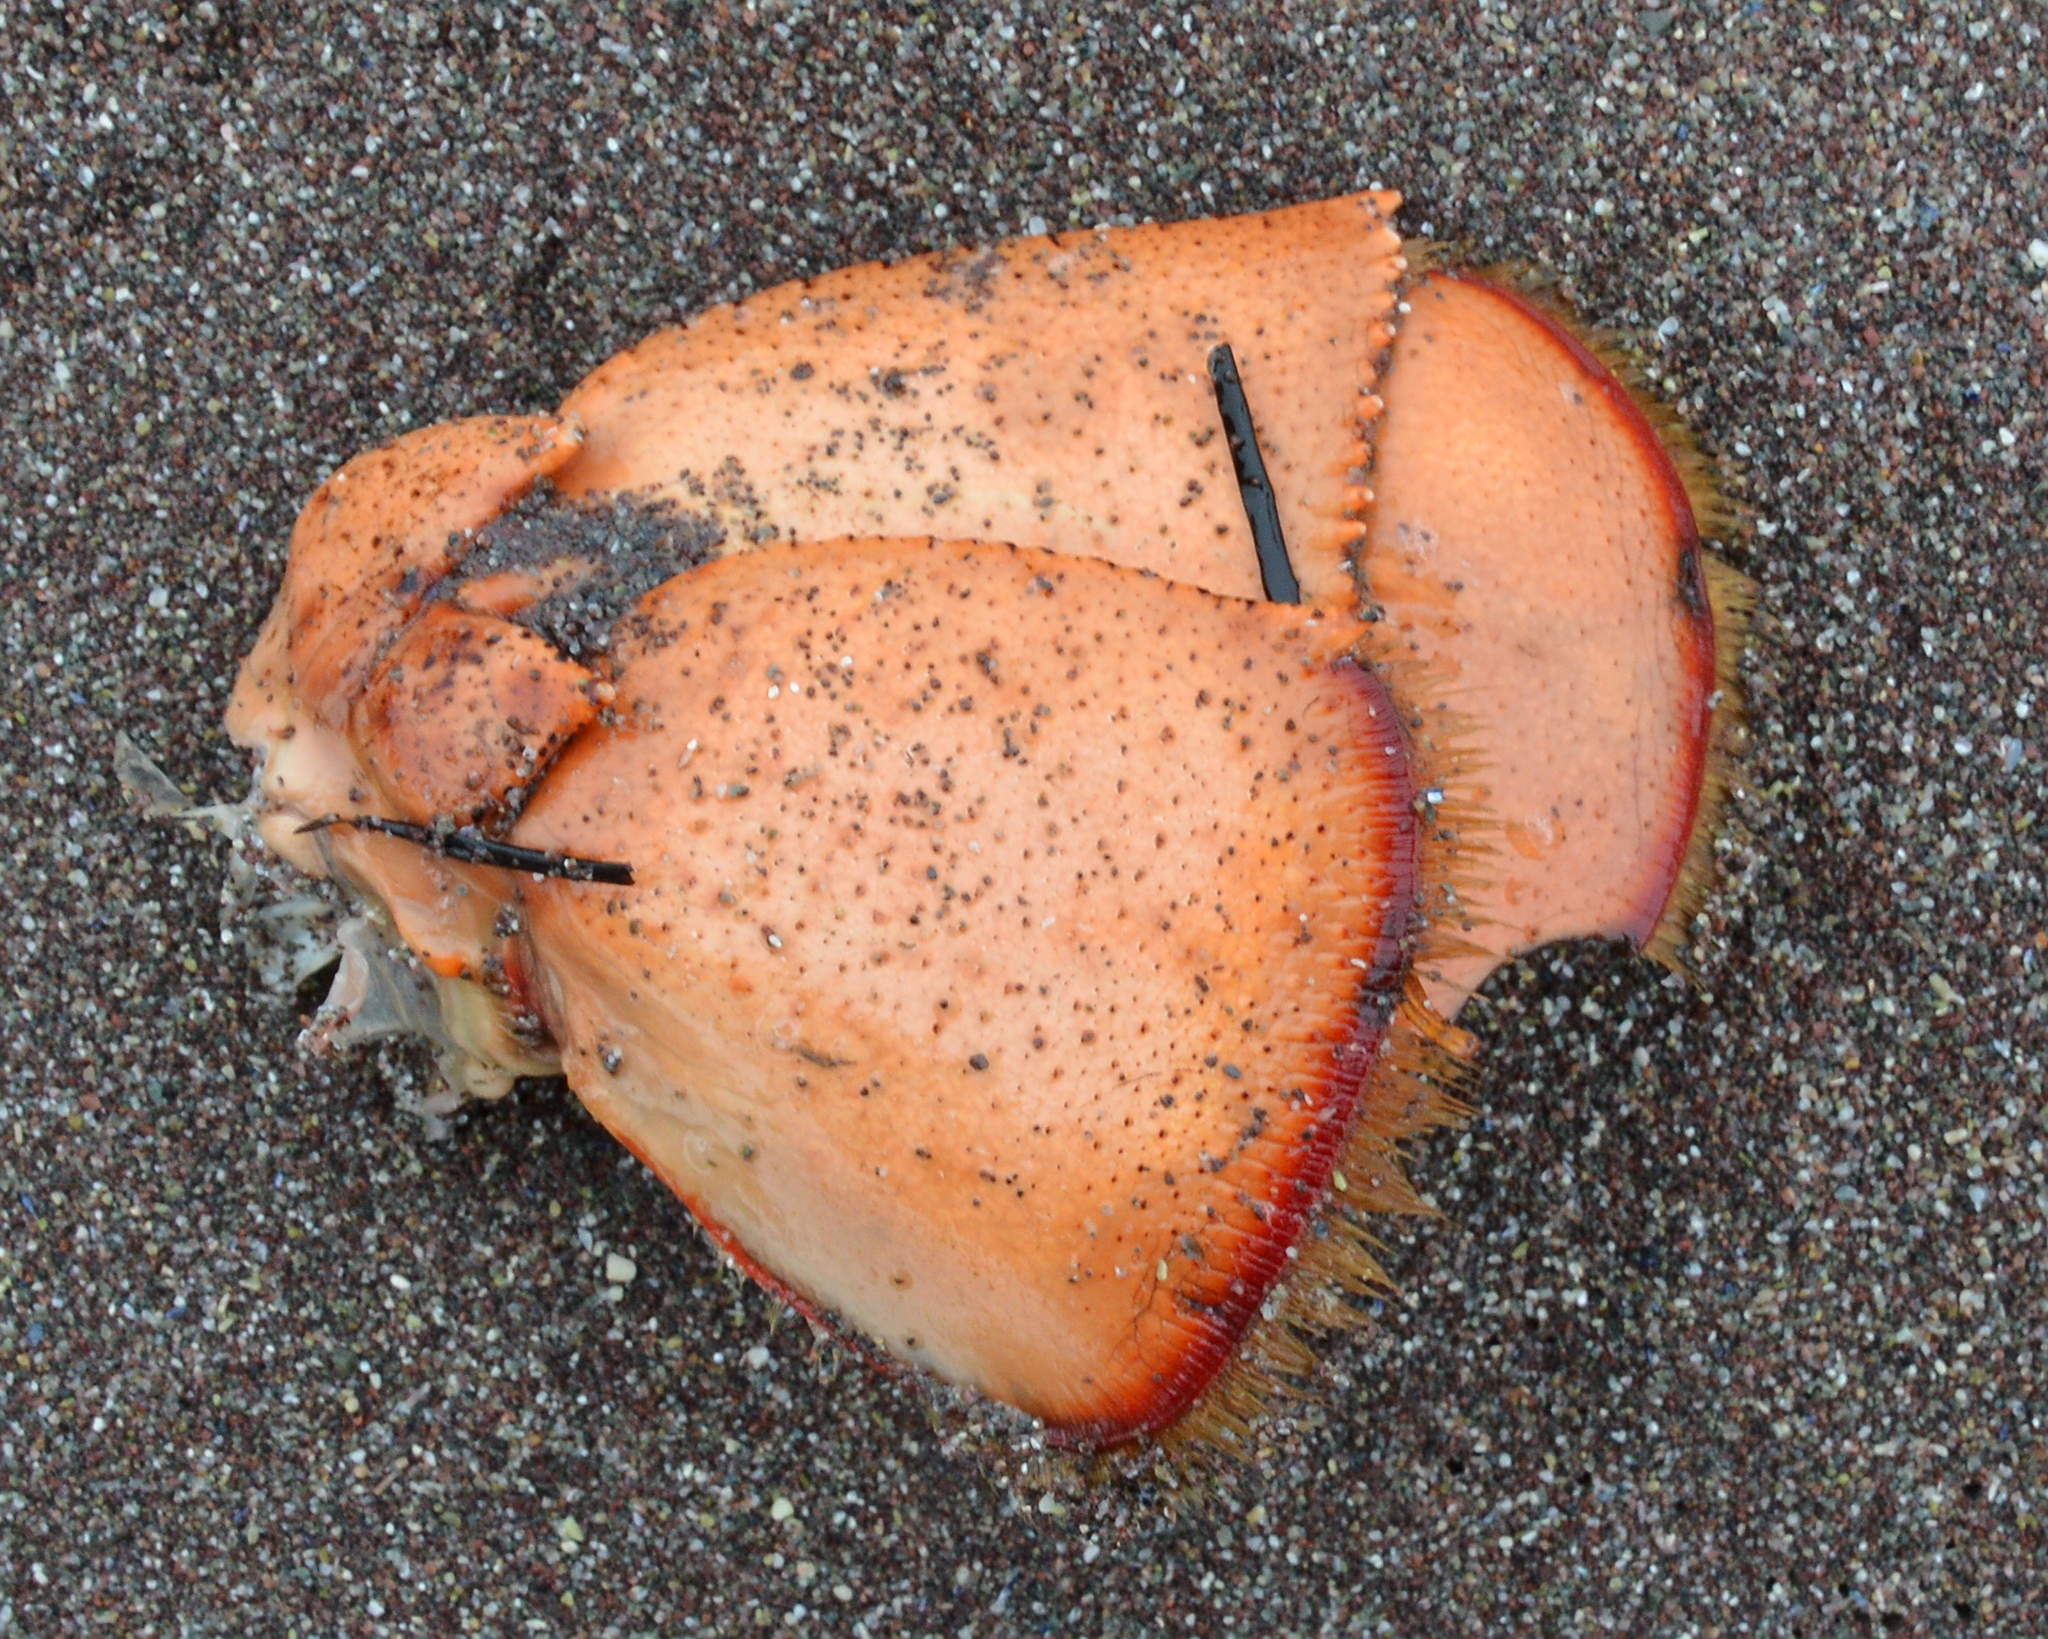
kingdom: Animalia
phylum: Arthropoda
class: Malacostraca
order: Decapoda
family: Nephropidae
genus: Homarus
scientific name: Homarus americanus
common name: American lobster
